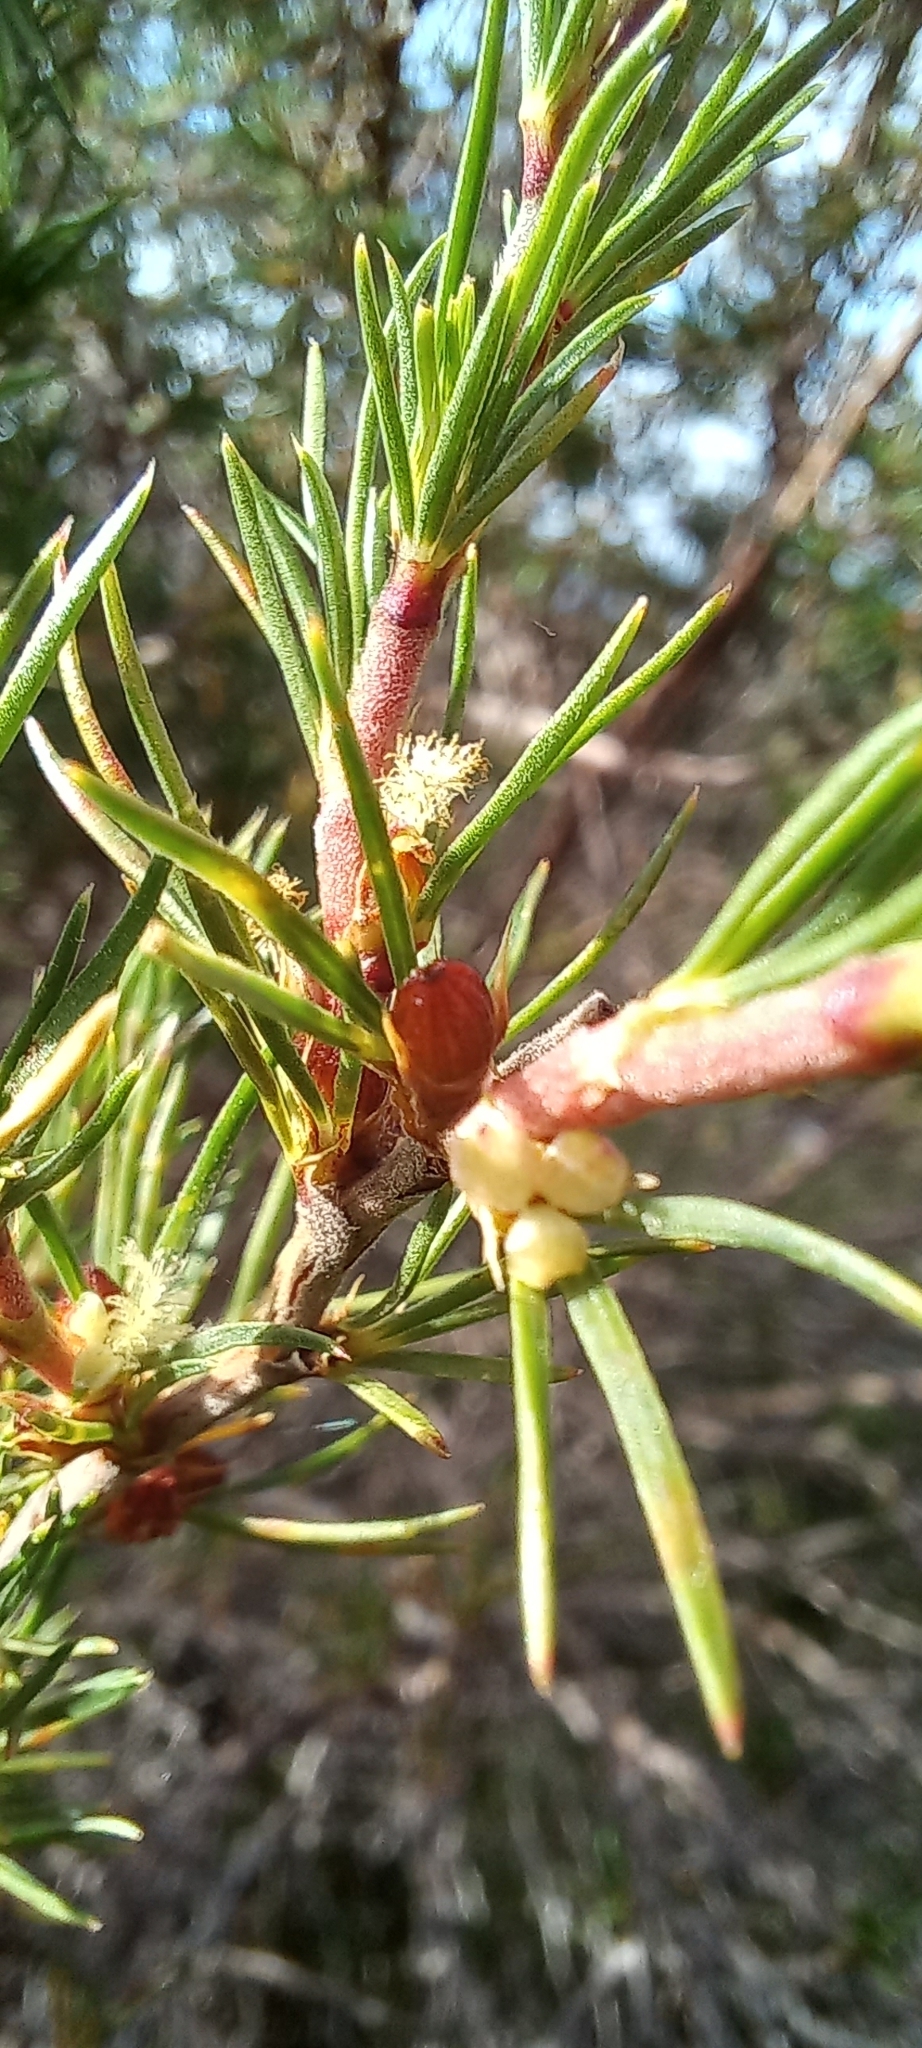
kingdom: Plantae
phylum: Tracheophyta
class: Magnoliopsida
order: Sapindales
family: Anacardiaceae
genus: Searsia
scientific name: Searsia rosmarinifolia
